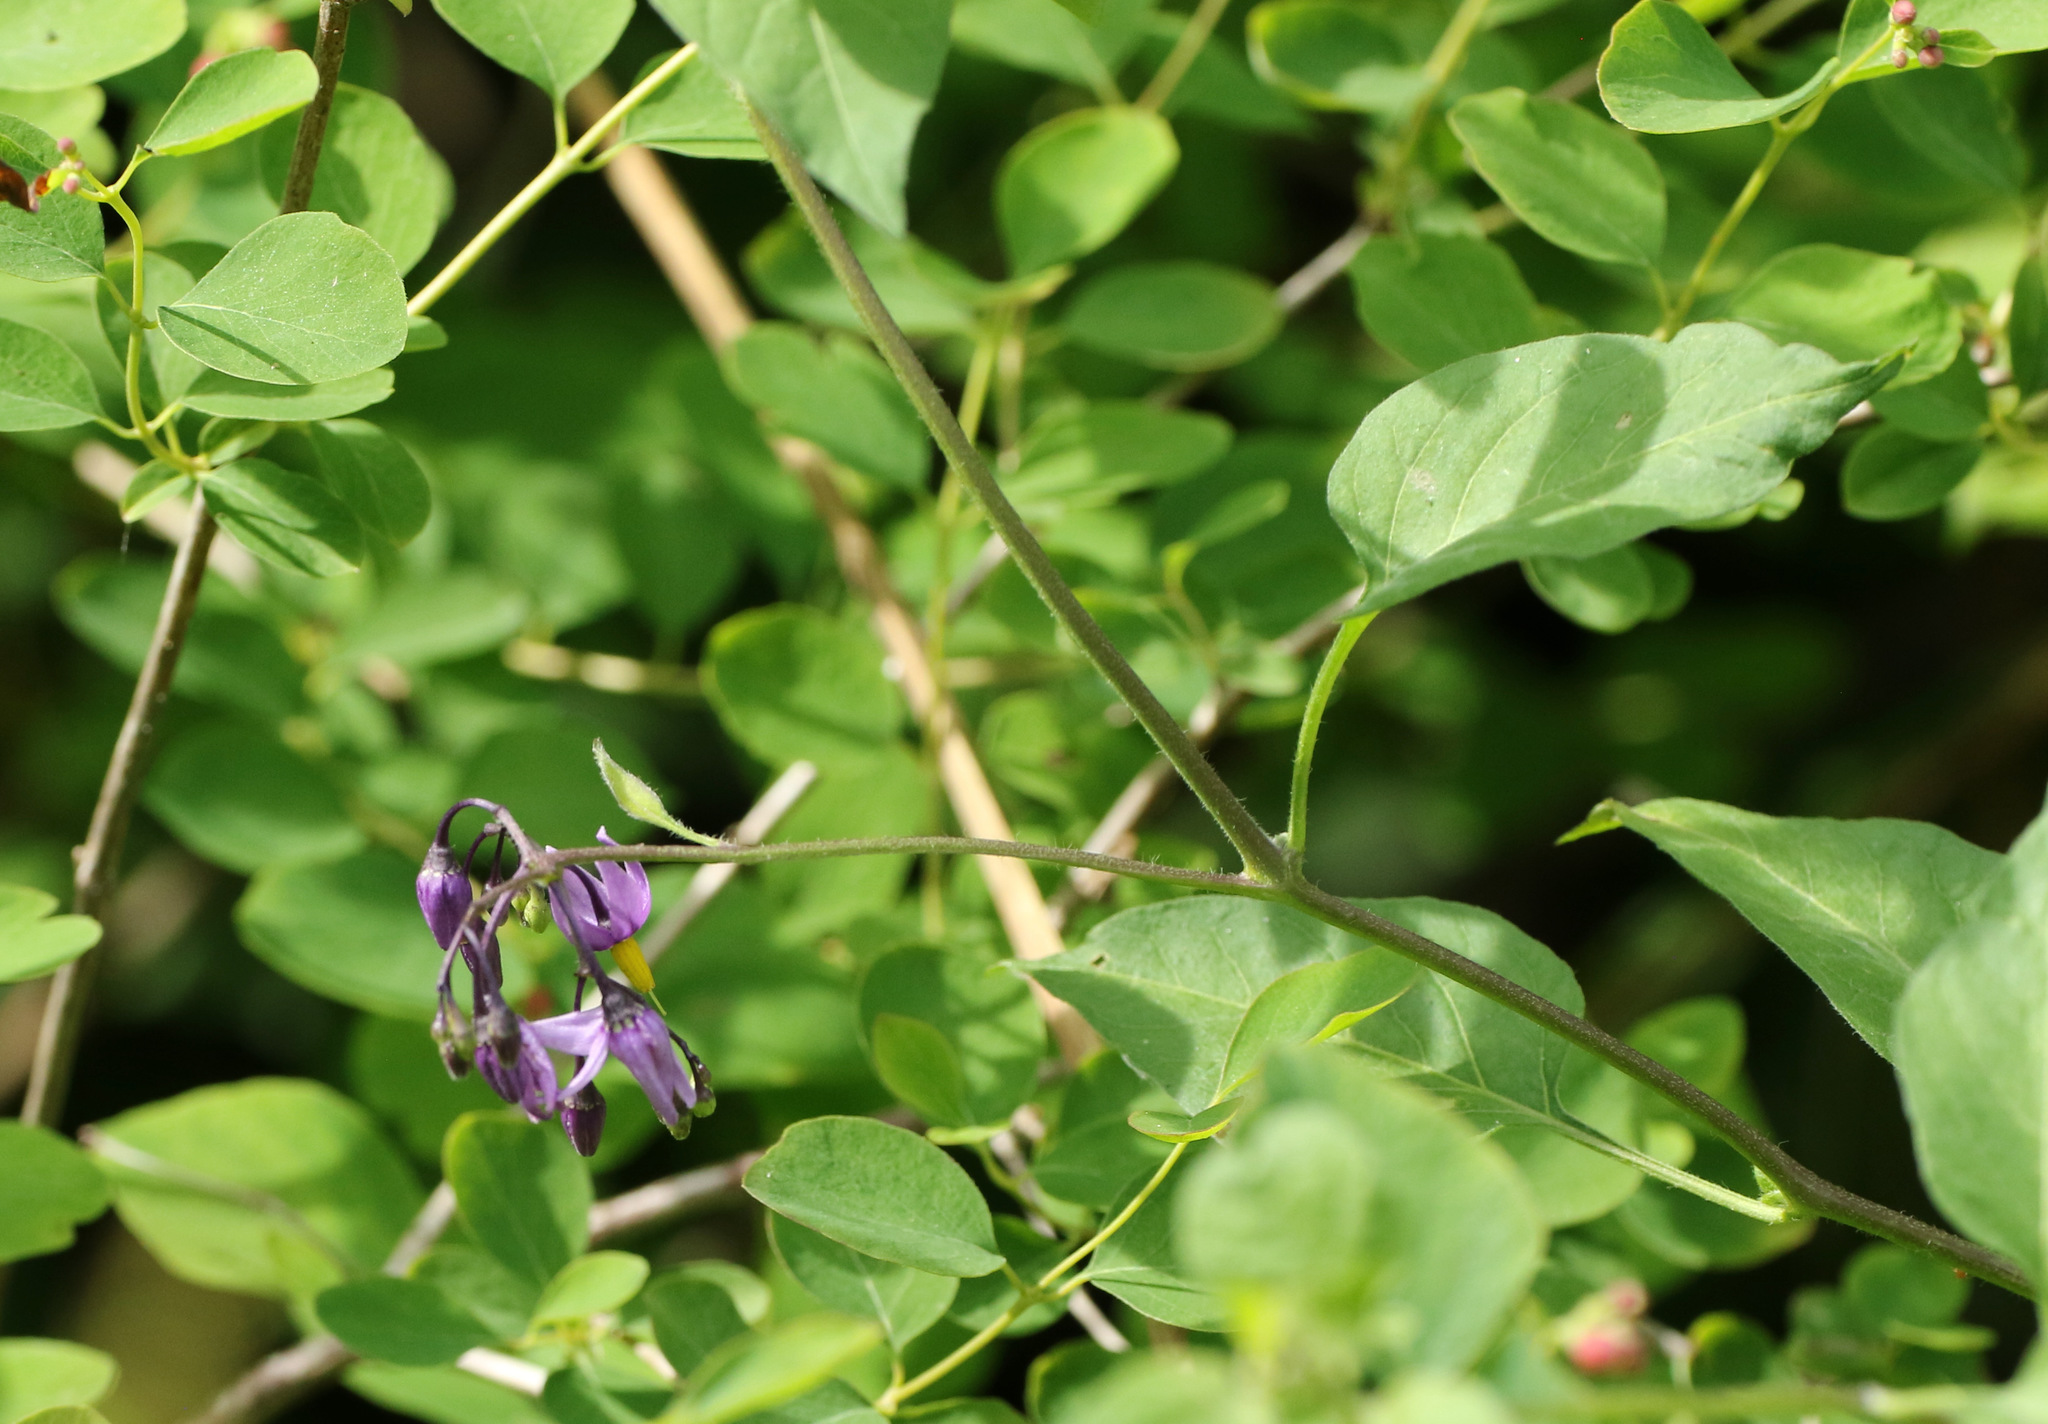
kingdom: Plantae
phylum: Tracheophyta
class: Magnoliopsida
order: Solanales
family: Solanaceae
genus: Solanum
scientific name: Solanum dulcamara
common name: Climbing nightshade
